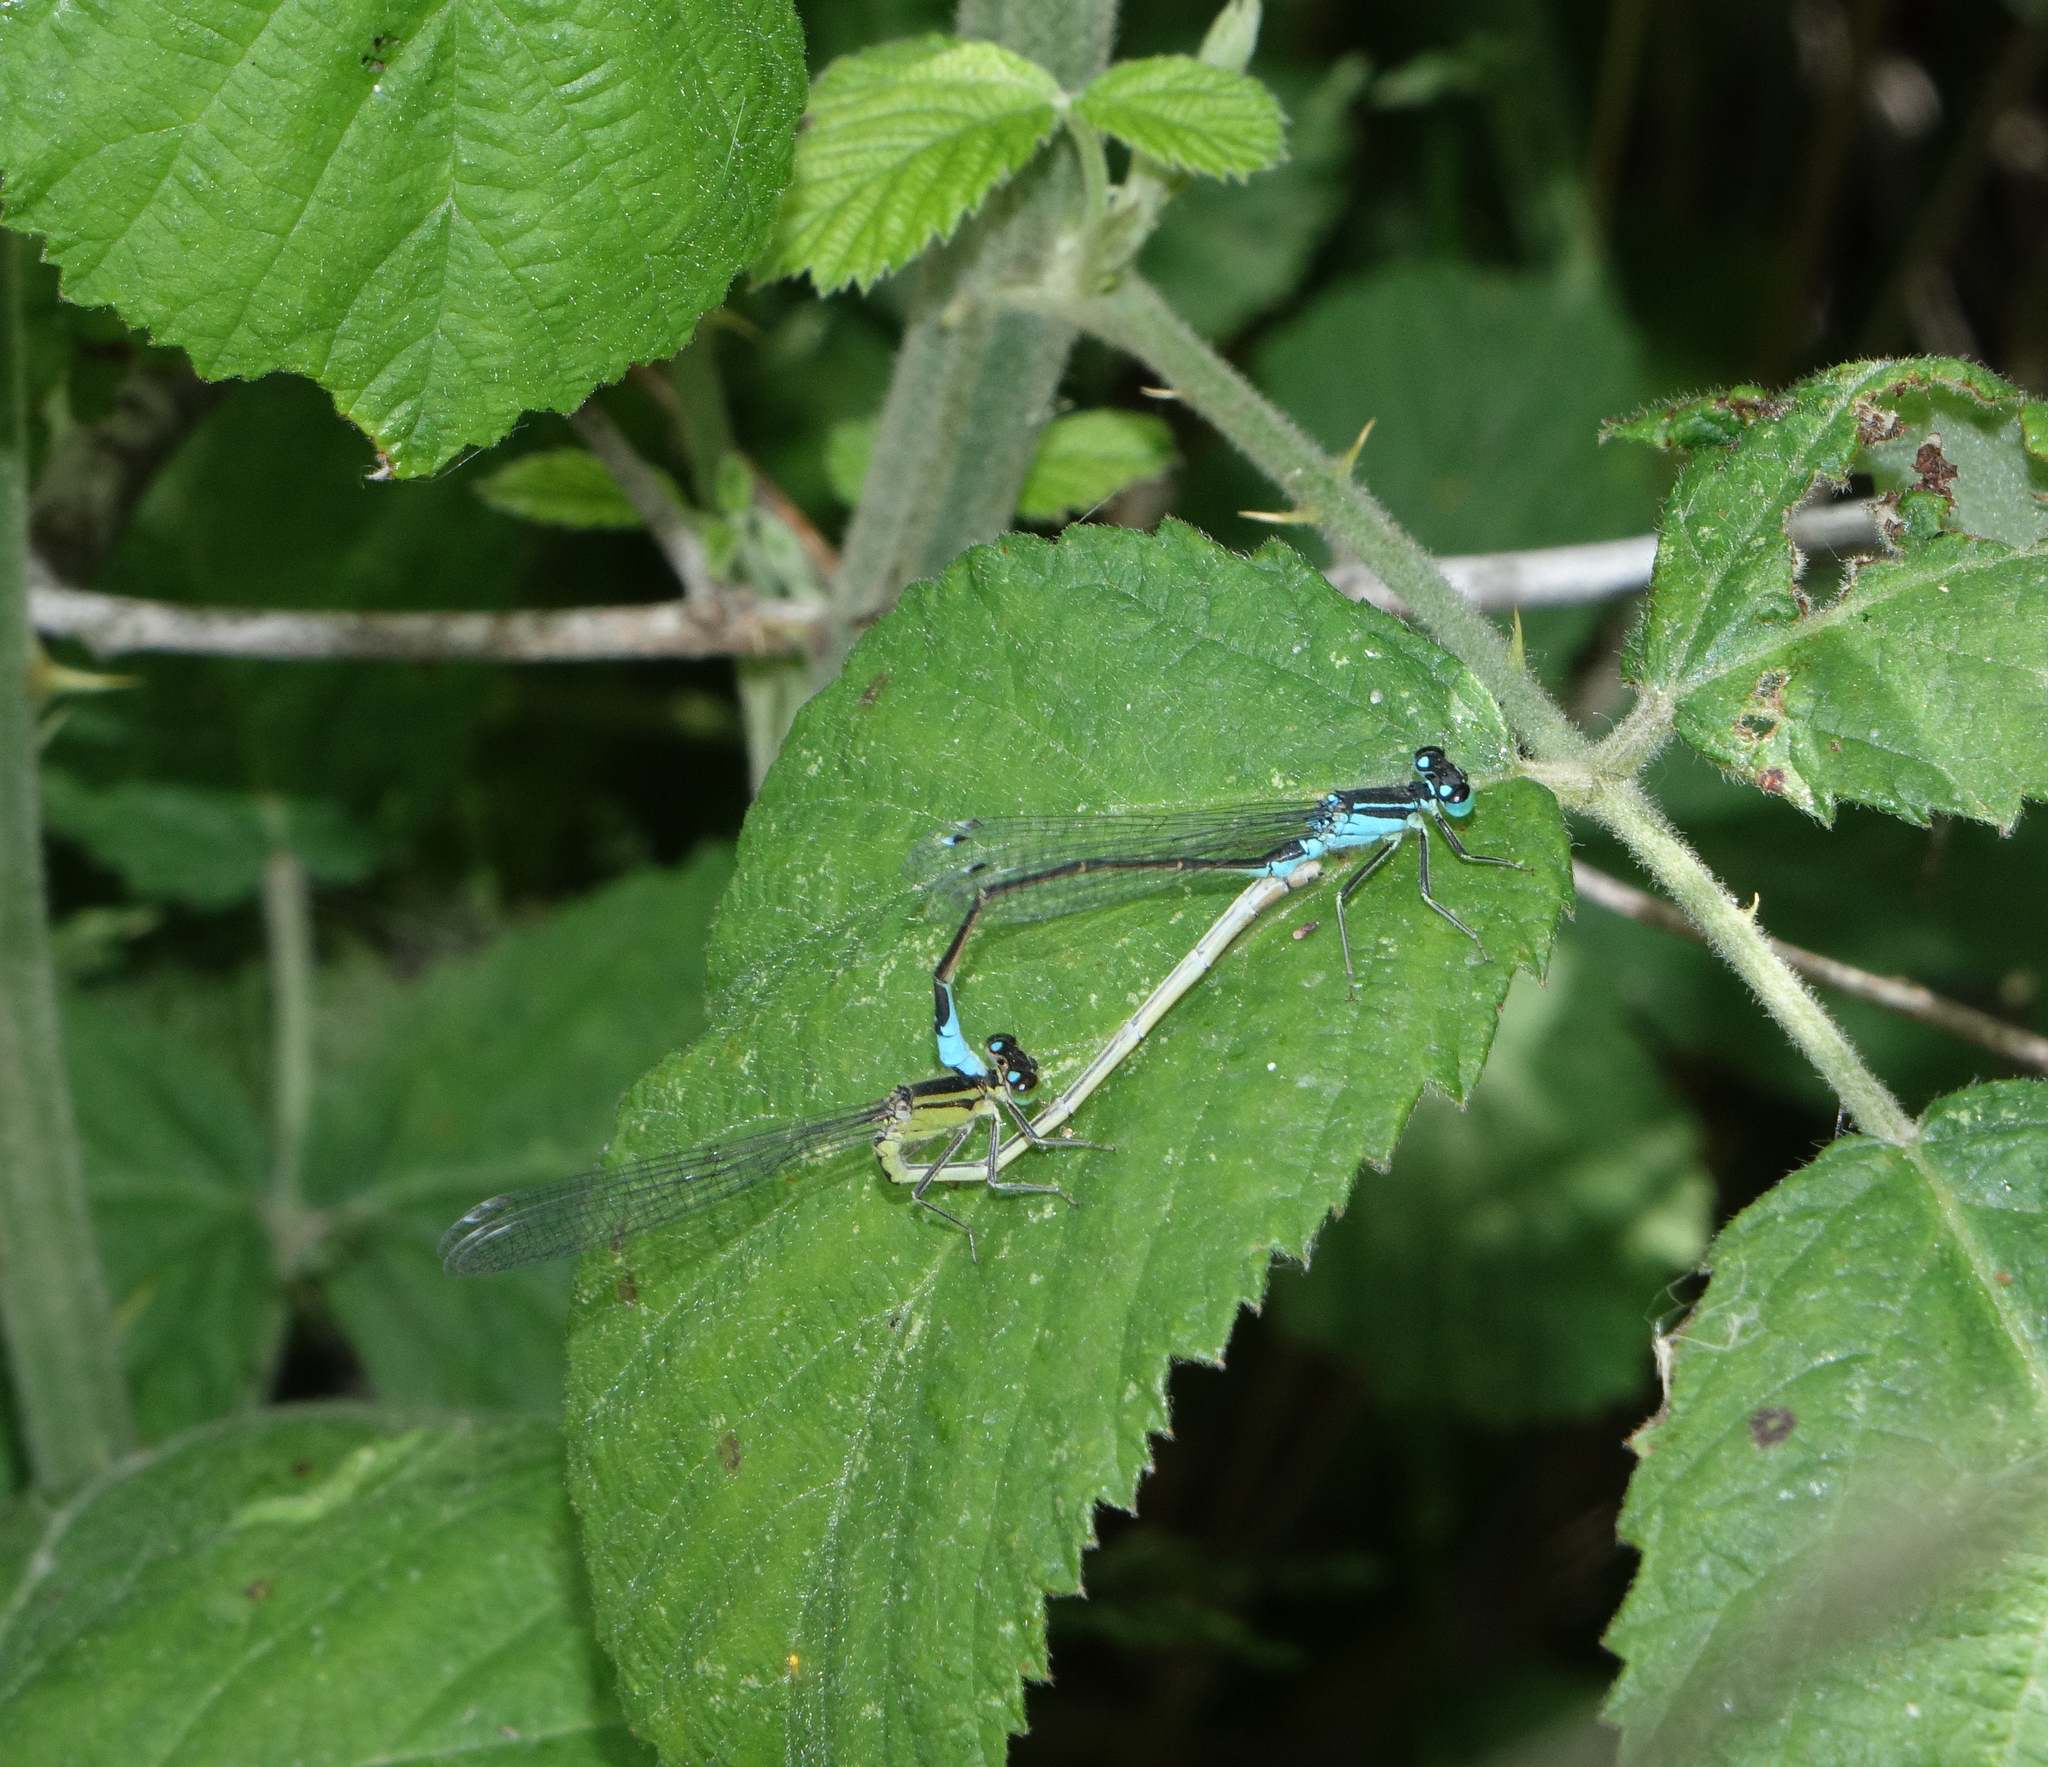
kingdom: Animalia
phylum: Arthropoda
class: Insecta
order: Odonata
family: Coenagrionidae
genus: Ischnura
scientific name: Ischnura elegans
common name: Blue-tailed damselfly
